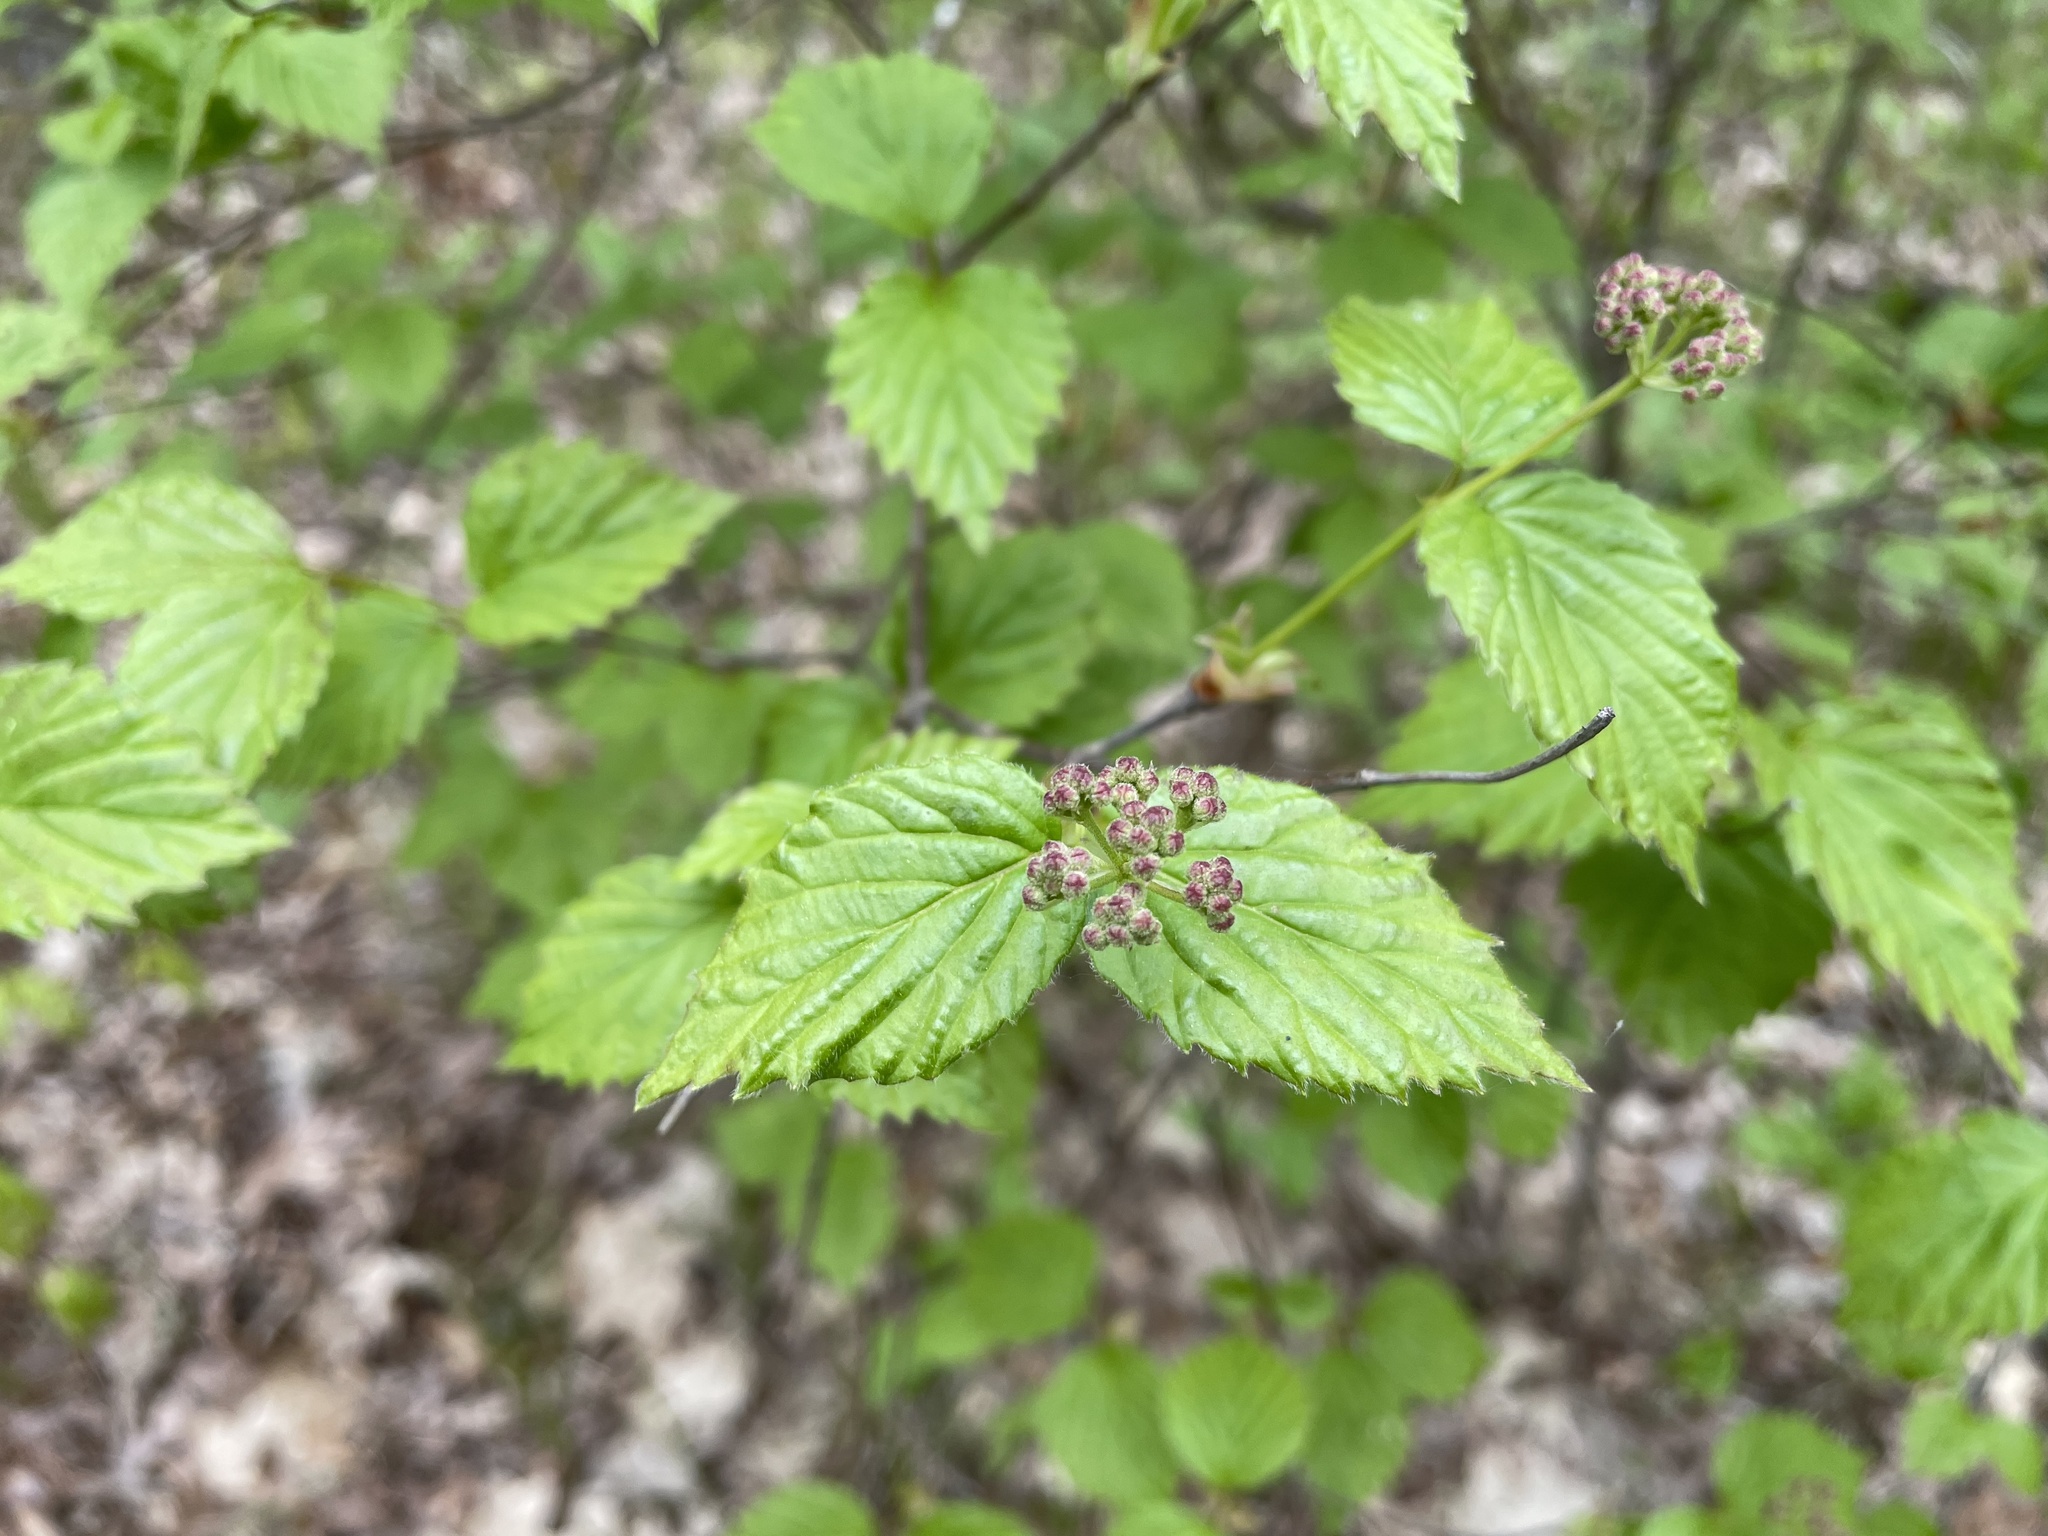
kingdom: Plantae
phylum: Tracheophyta
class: Magnoliopsida
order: Dipsacales
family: Viburnaceae
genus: Viburnum
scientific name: Viburnum rafinesqueanum
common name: Downy arrow-wood
